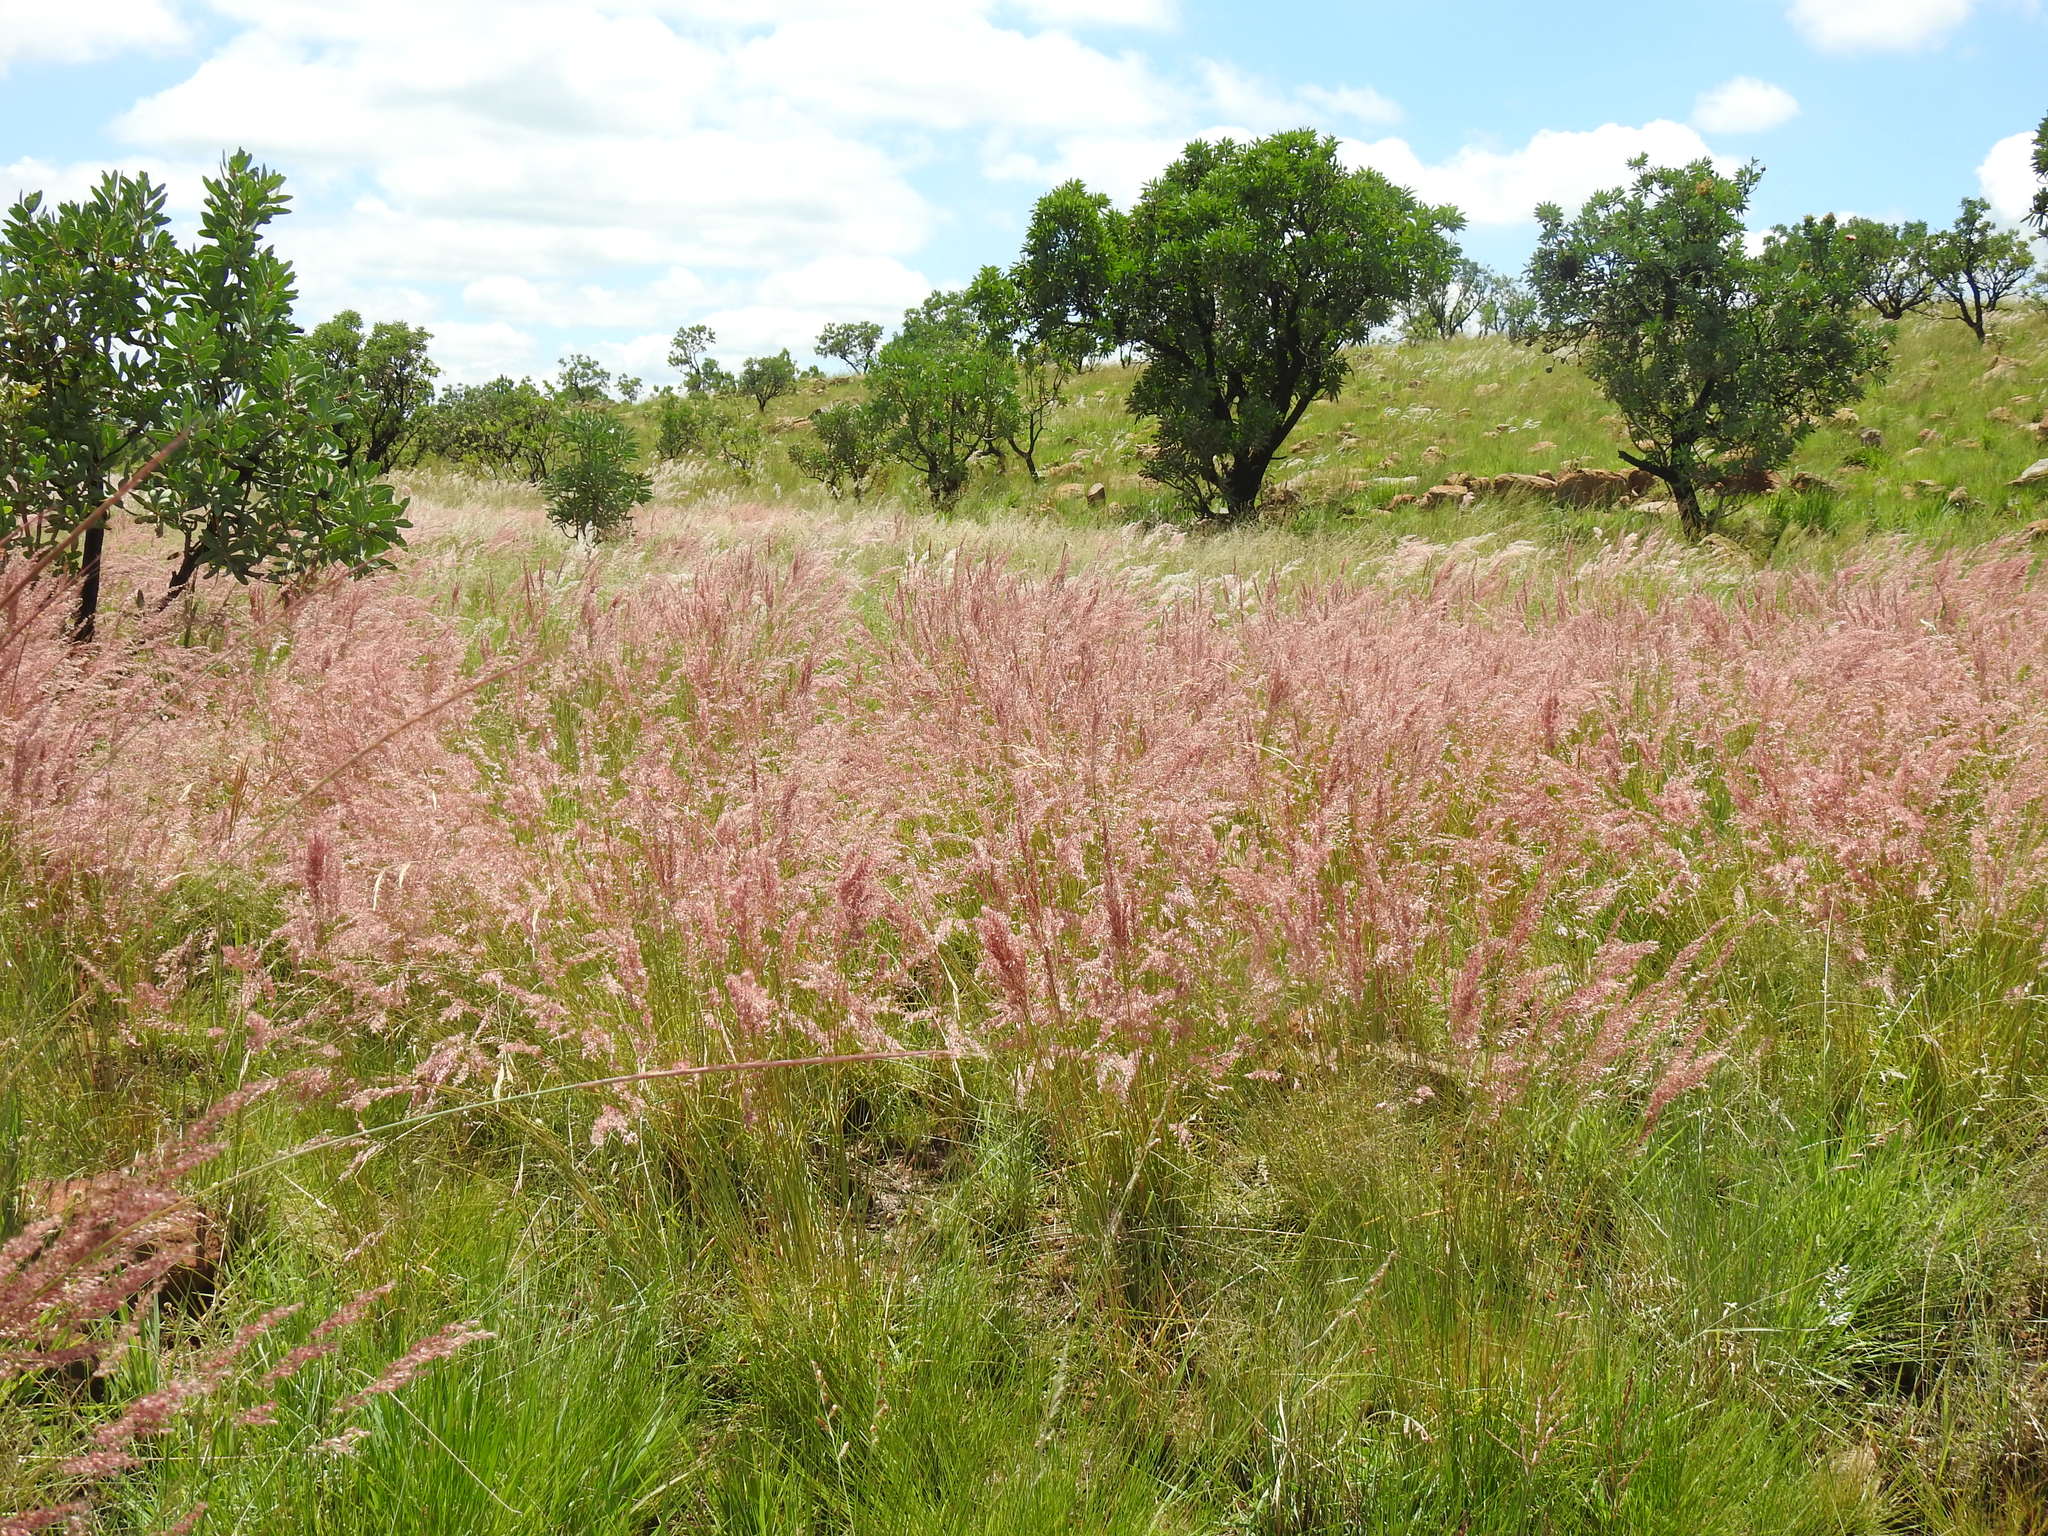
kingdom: Plantae
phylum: Tracheophyta
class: Liliopsida
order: Poales
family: Poaceae
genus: Melinis
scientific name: Melinis repens
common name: Rose natal grass
